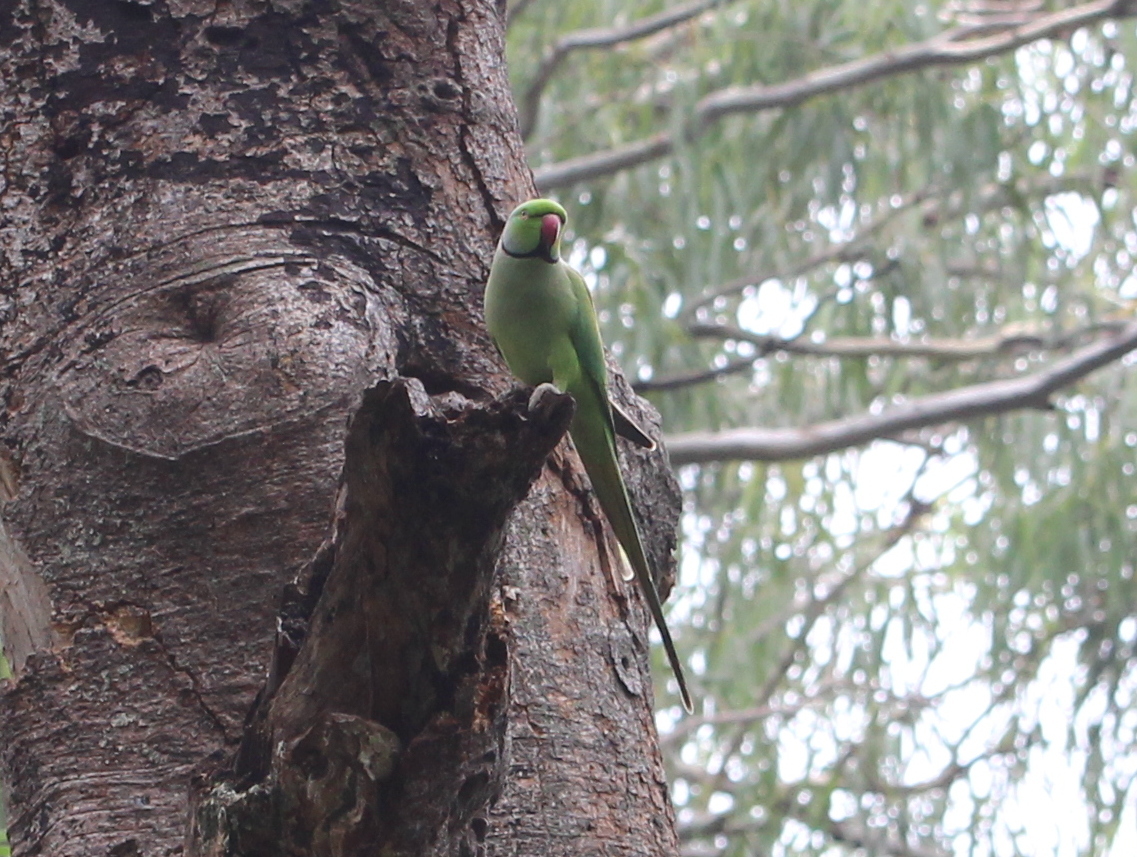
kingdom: Animalia
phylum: Chordata
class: Aves
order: Psittaciformes
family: Psittacidae
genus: Psittacula
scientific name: Psittacula krameri
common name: Rose-ringed parakeet
